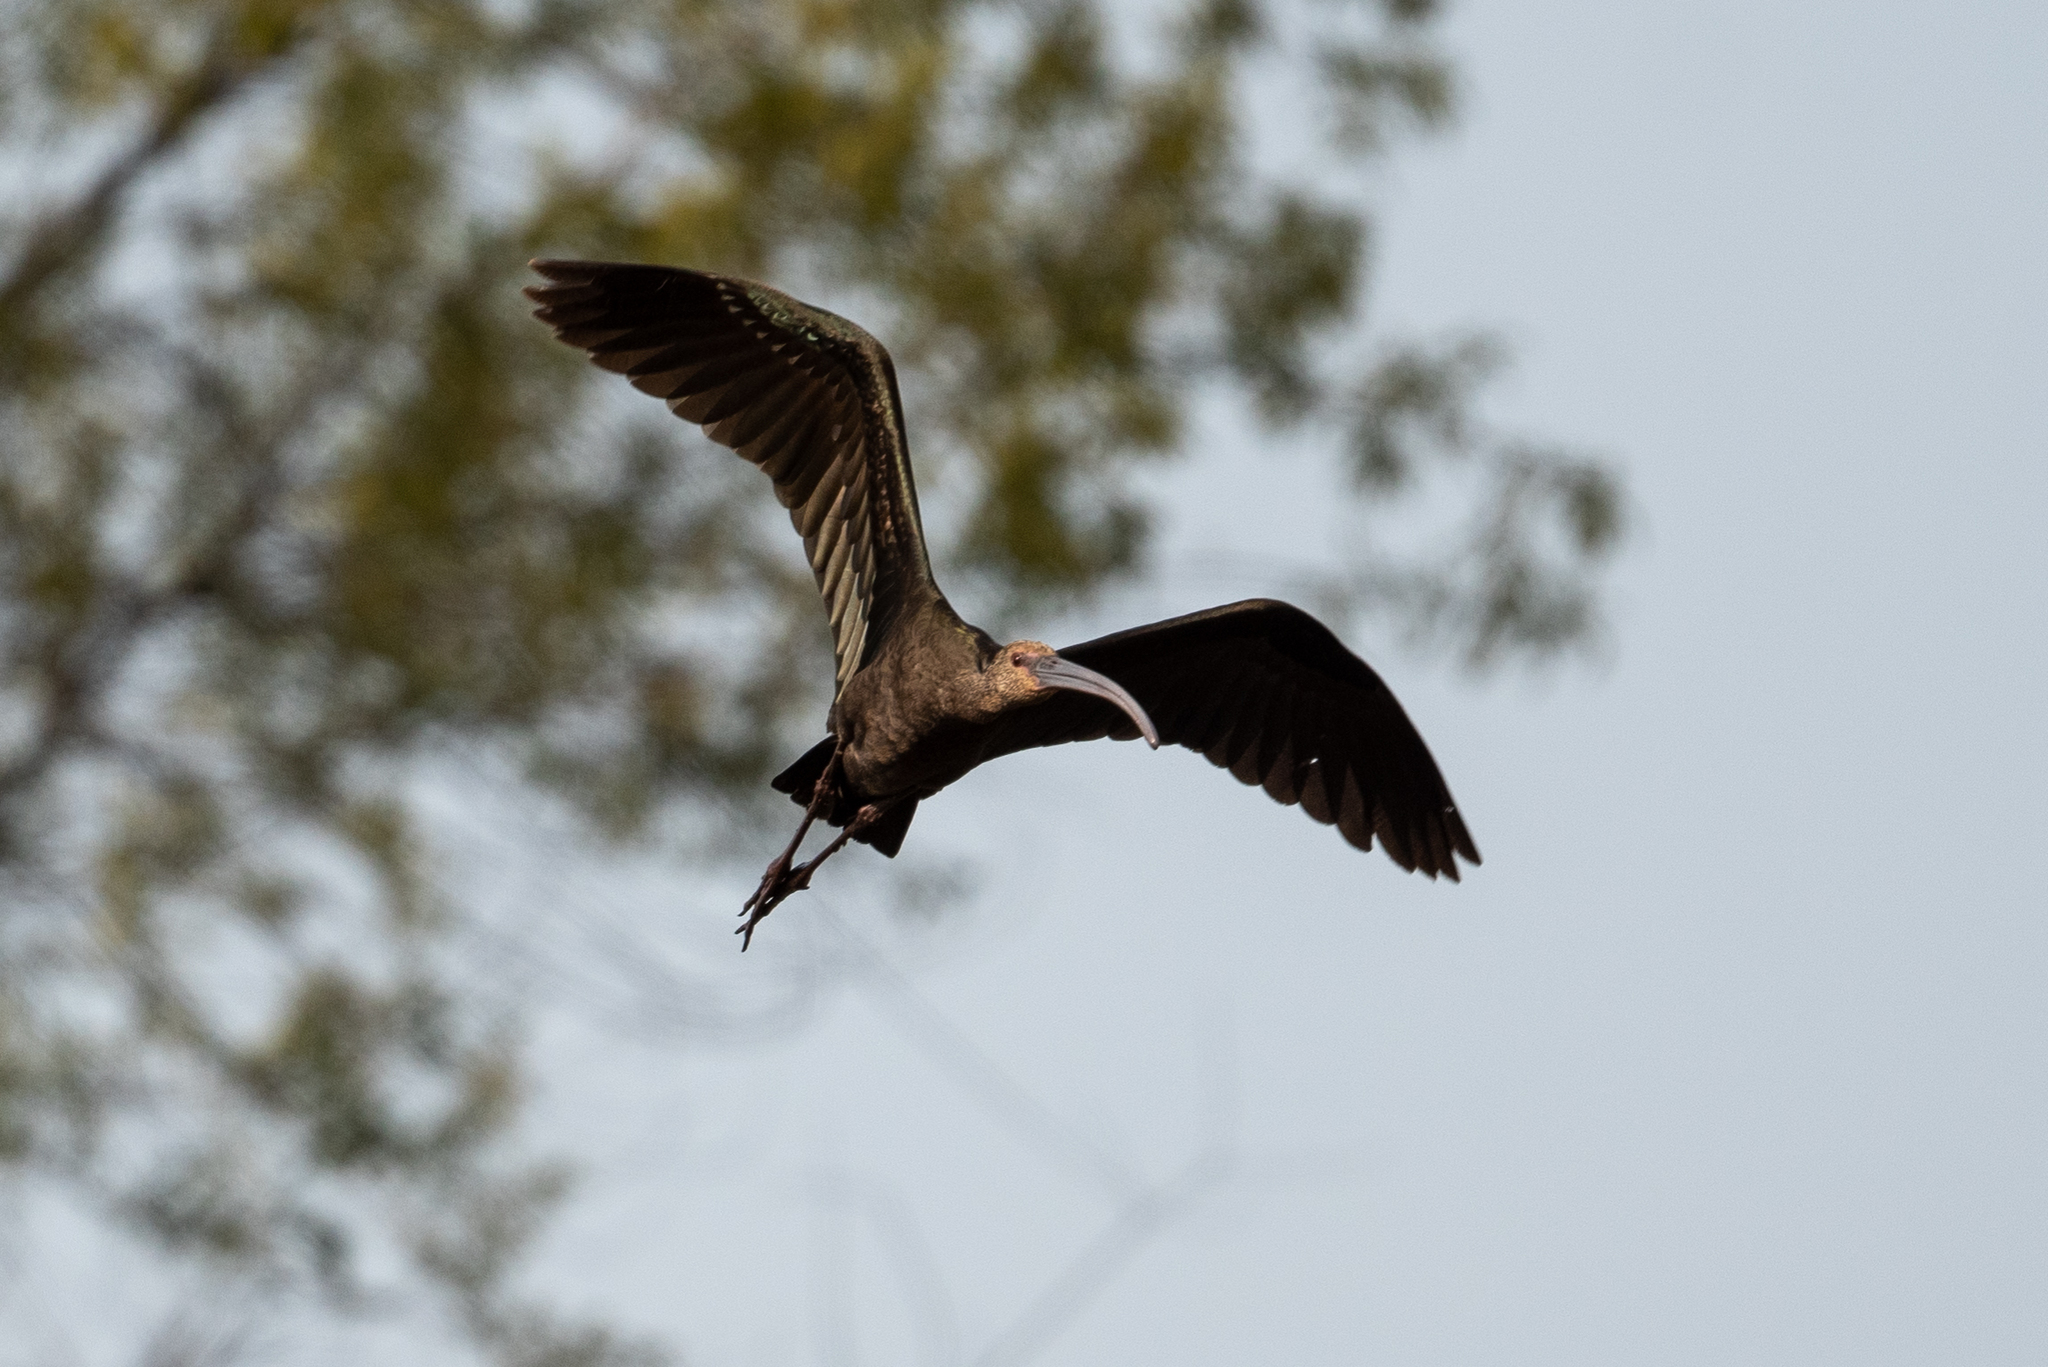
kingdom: Animalia
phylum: Chordata
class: Aves
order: Pelecaniformes
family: Threskiornithidae
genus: Plegadis
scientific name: Plegadis chihi
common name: White-faced ibis
